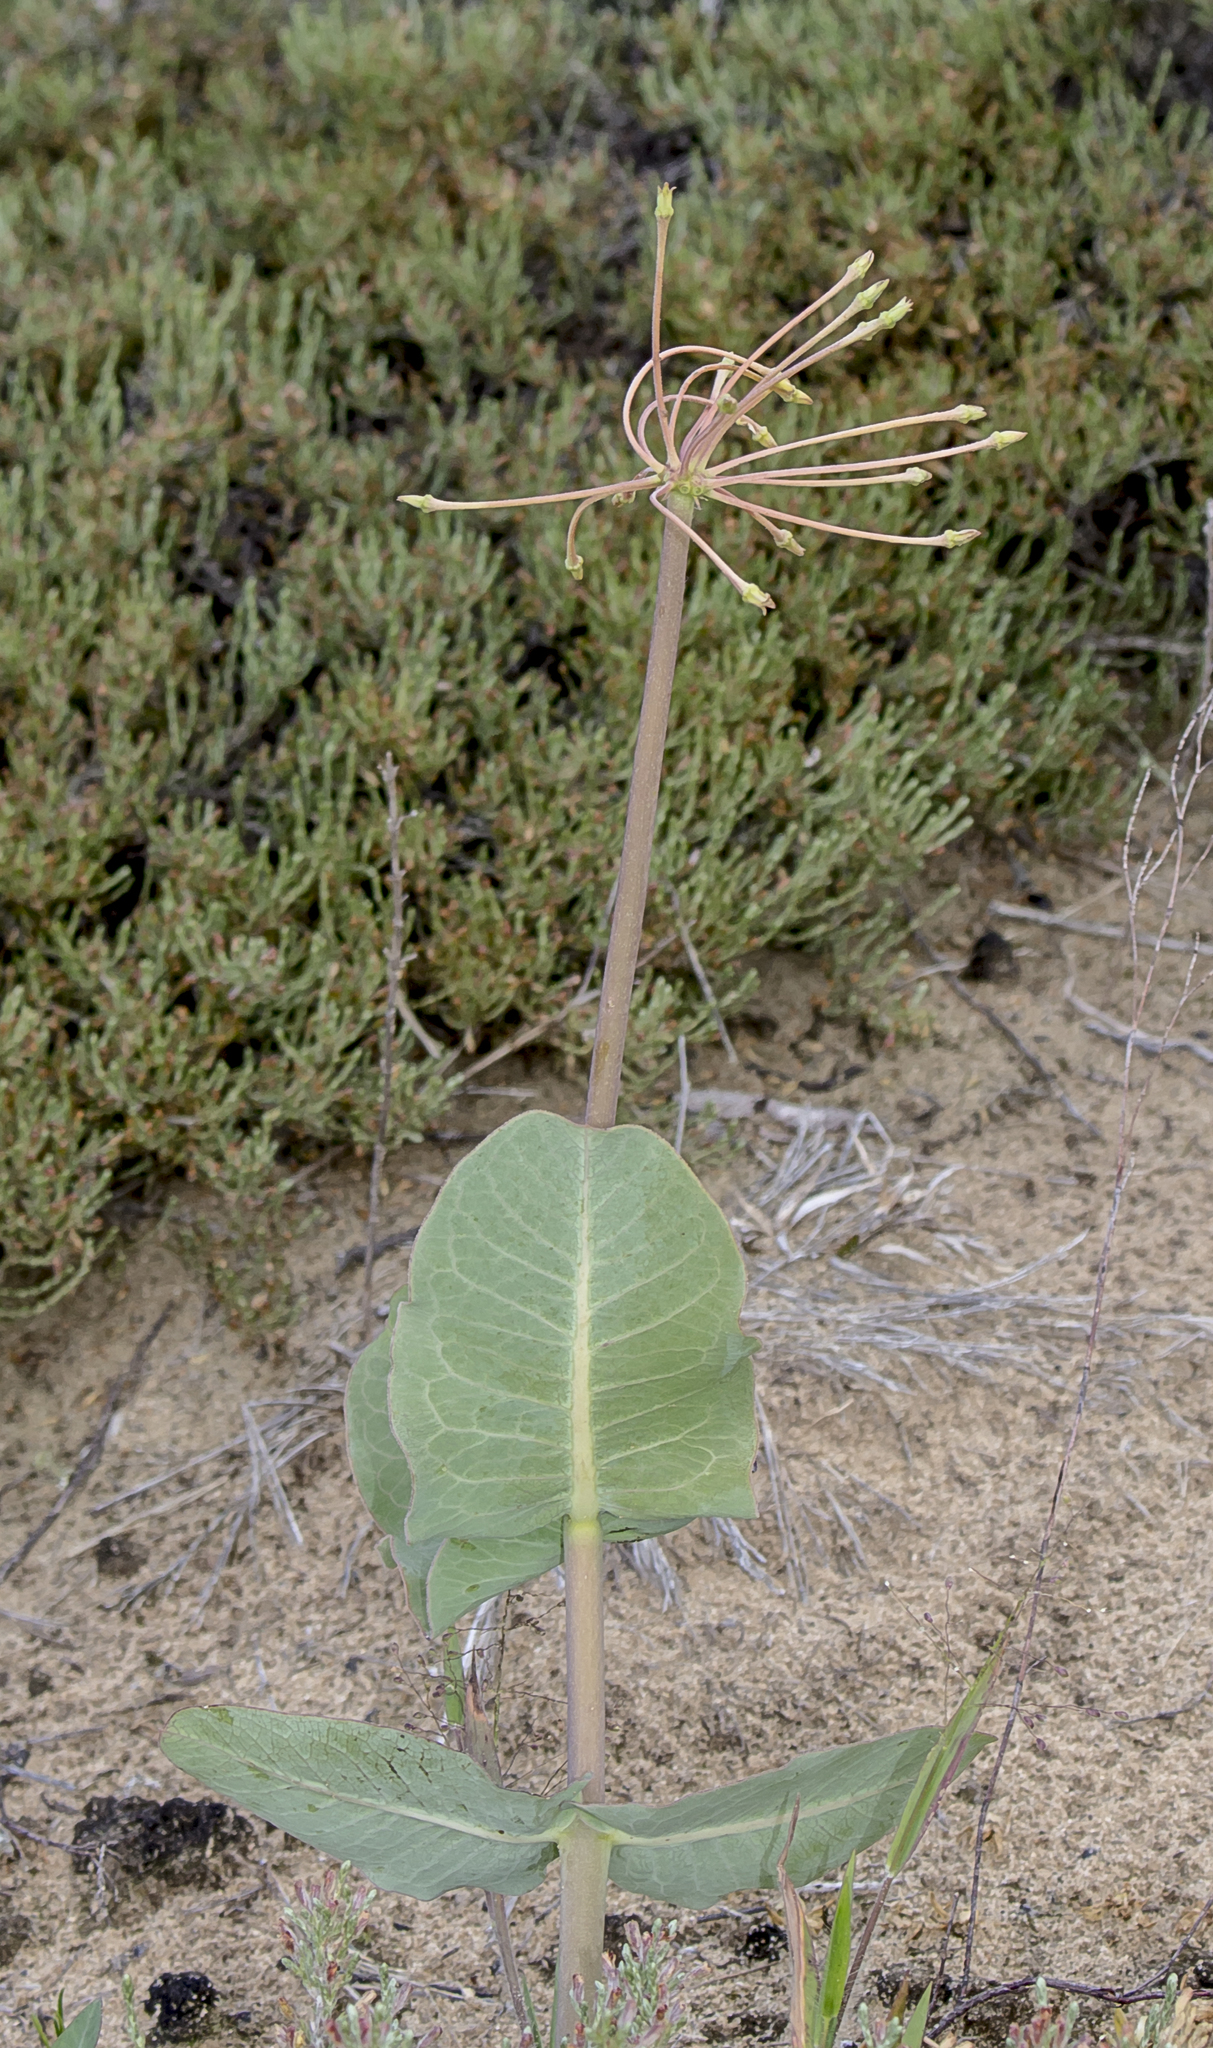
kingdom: Plantae
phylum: Tracheophyta
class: Magnoliopsida
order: Gentianales
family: Apocynaceae
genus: Asclepias
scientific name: Asclepias amplexicaulis
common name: Blunt-leaf milkweed
